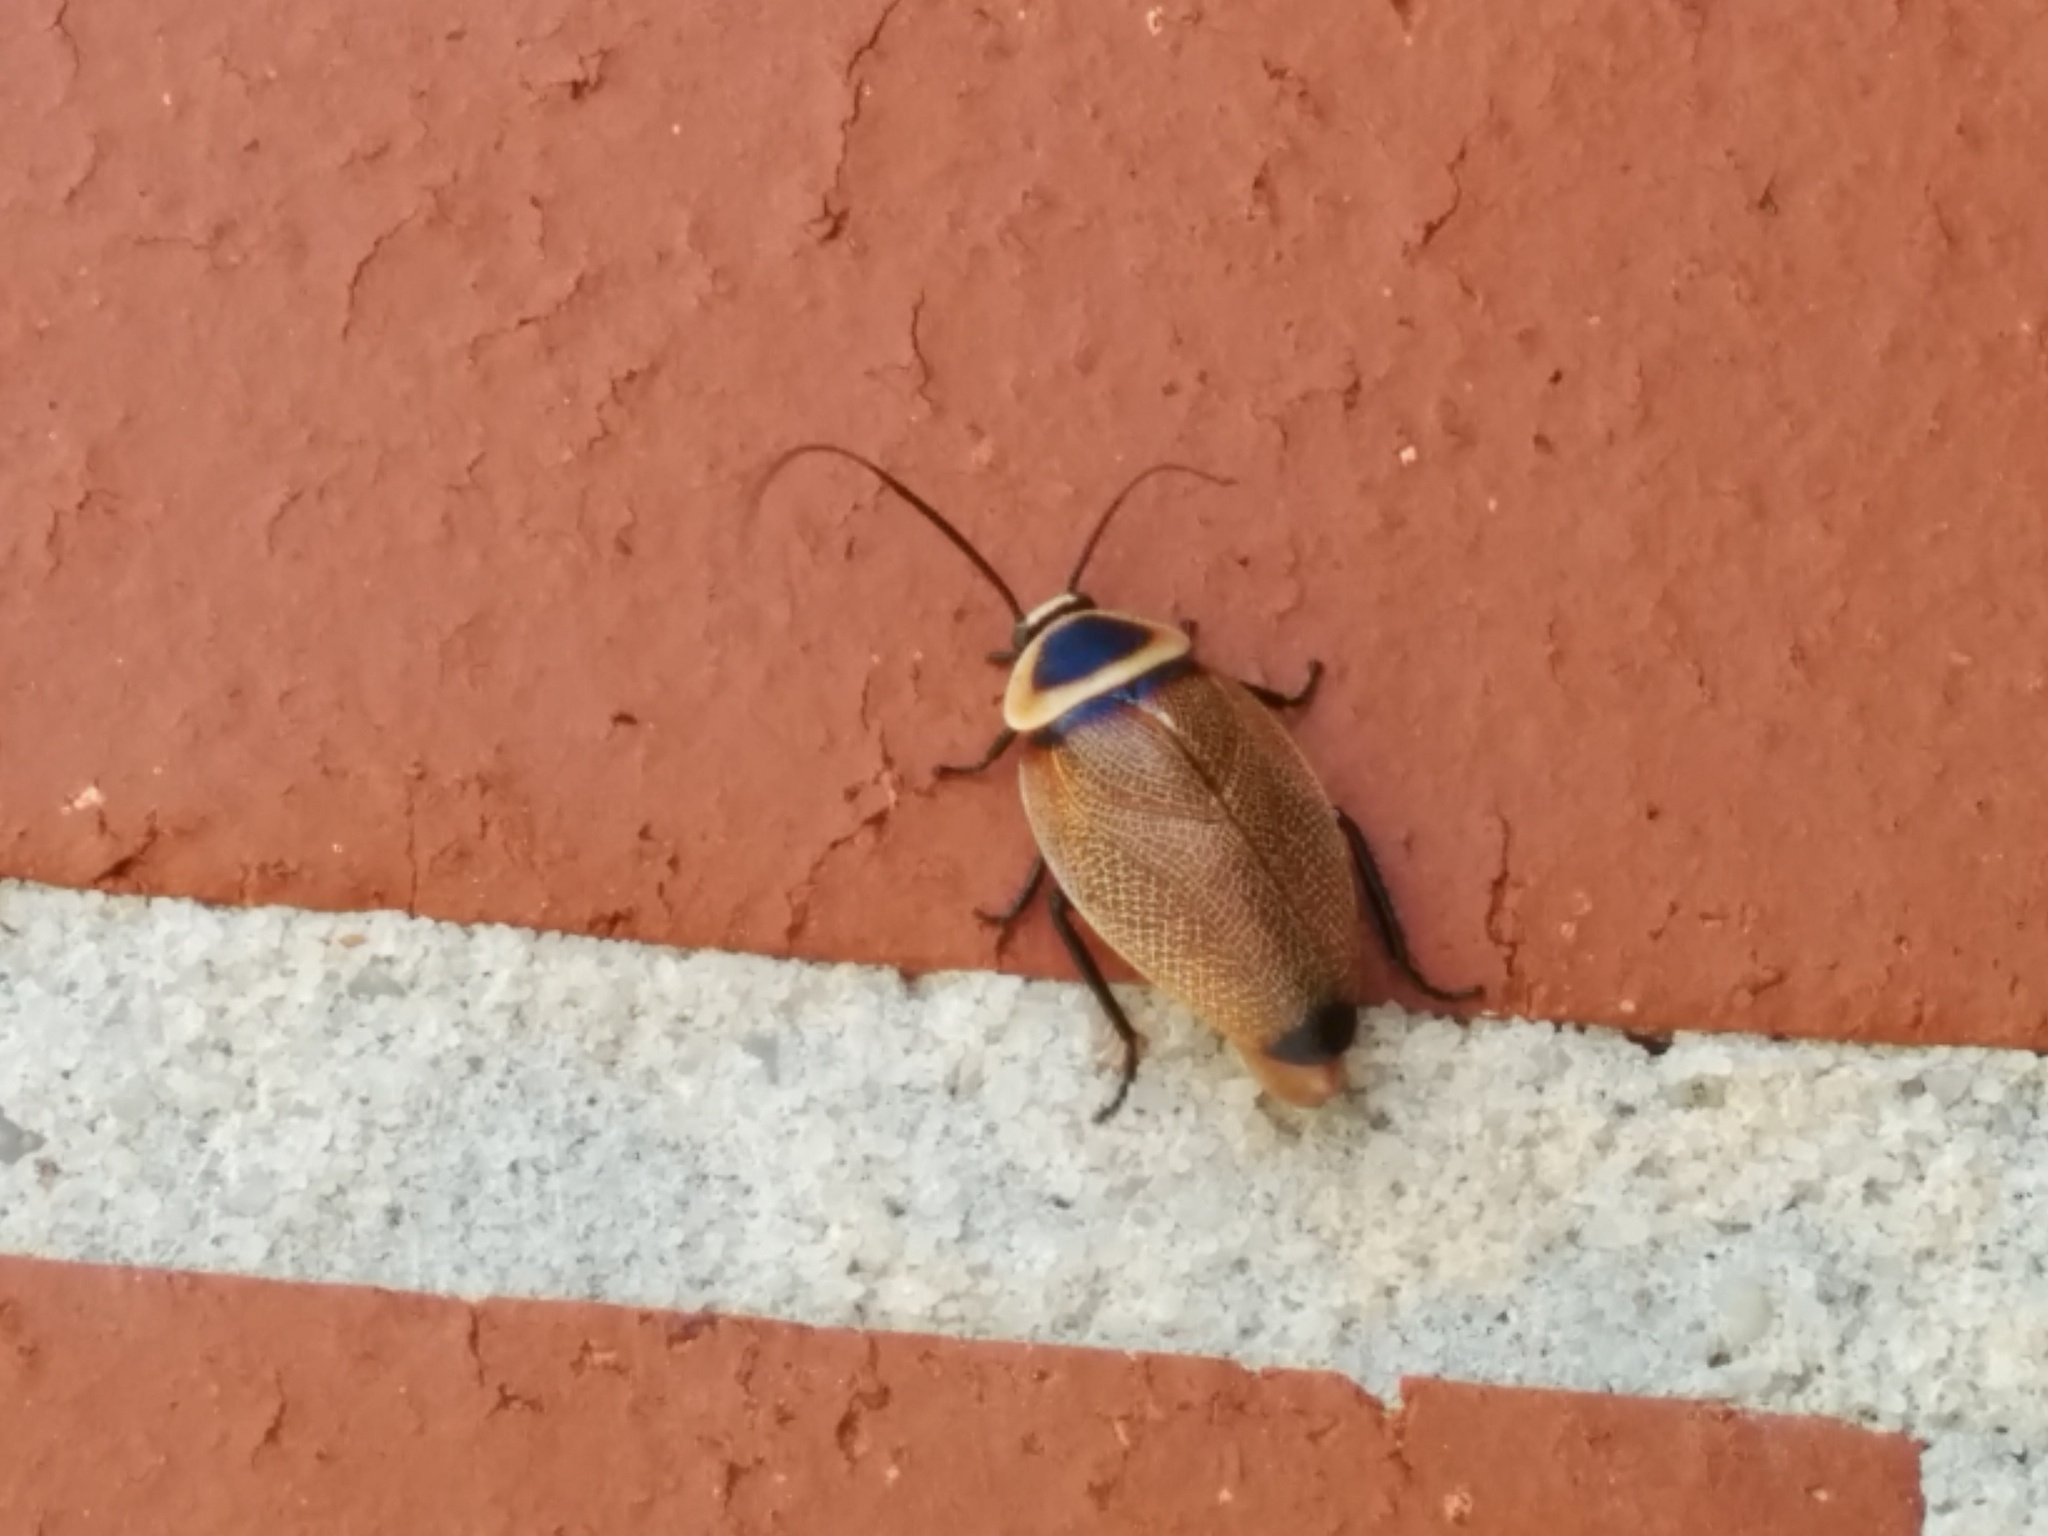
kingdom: Animalia
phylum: Arthropoda
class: Insecta
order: Blattodea
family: Ectobiidae
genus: Ellipsidion
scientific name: Ellipsidion australe
